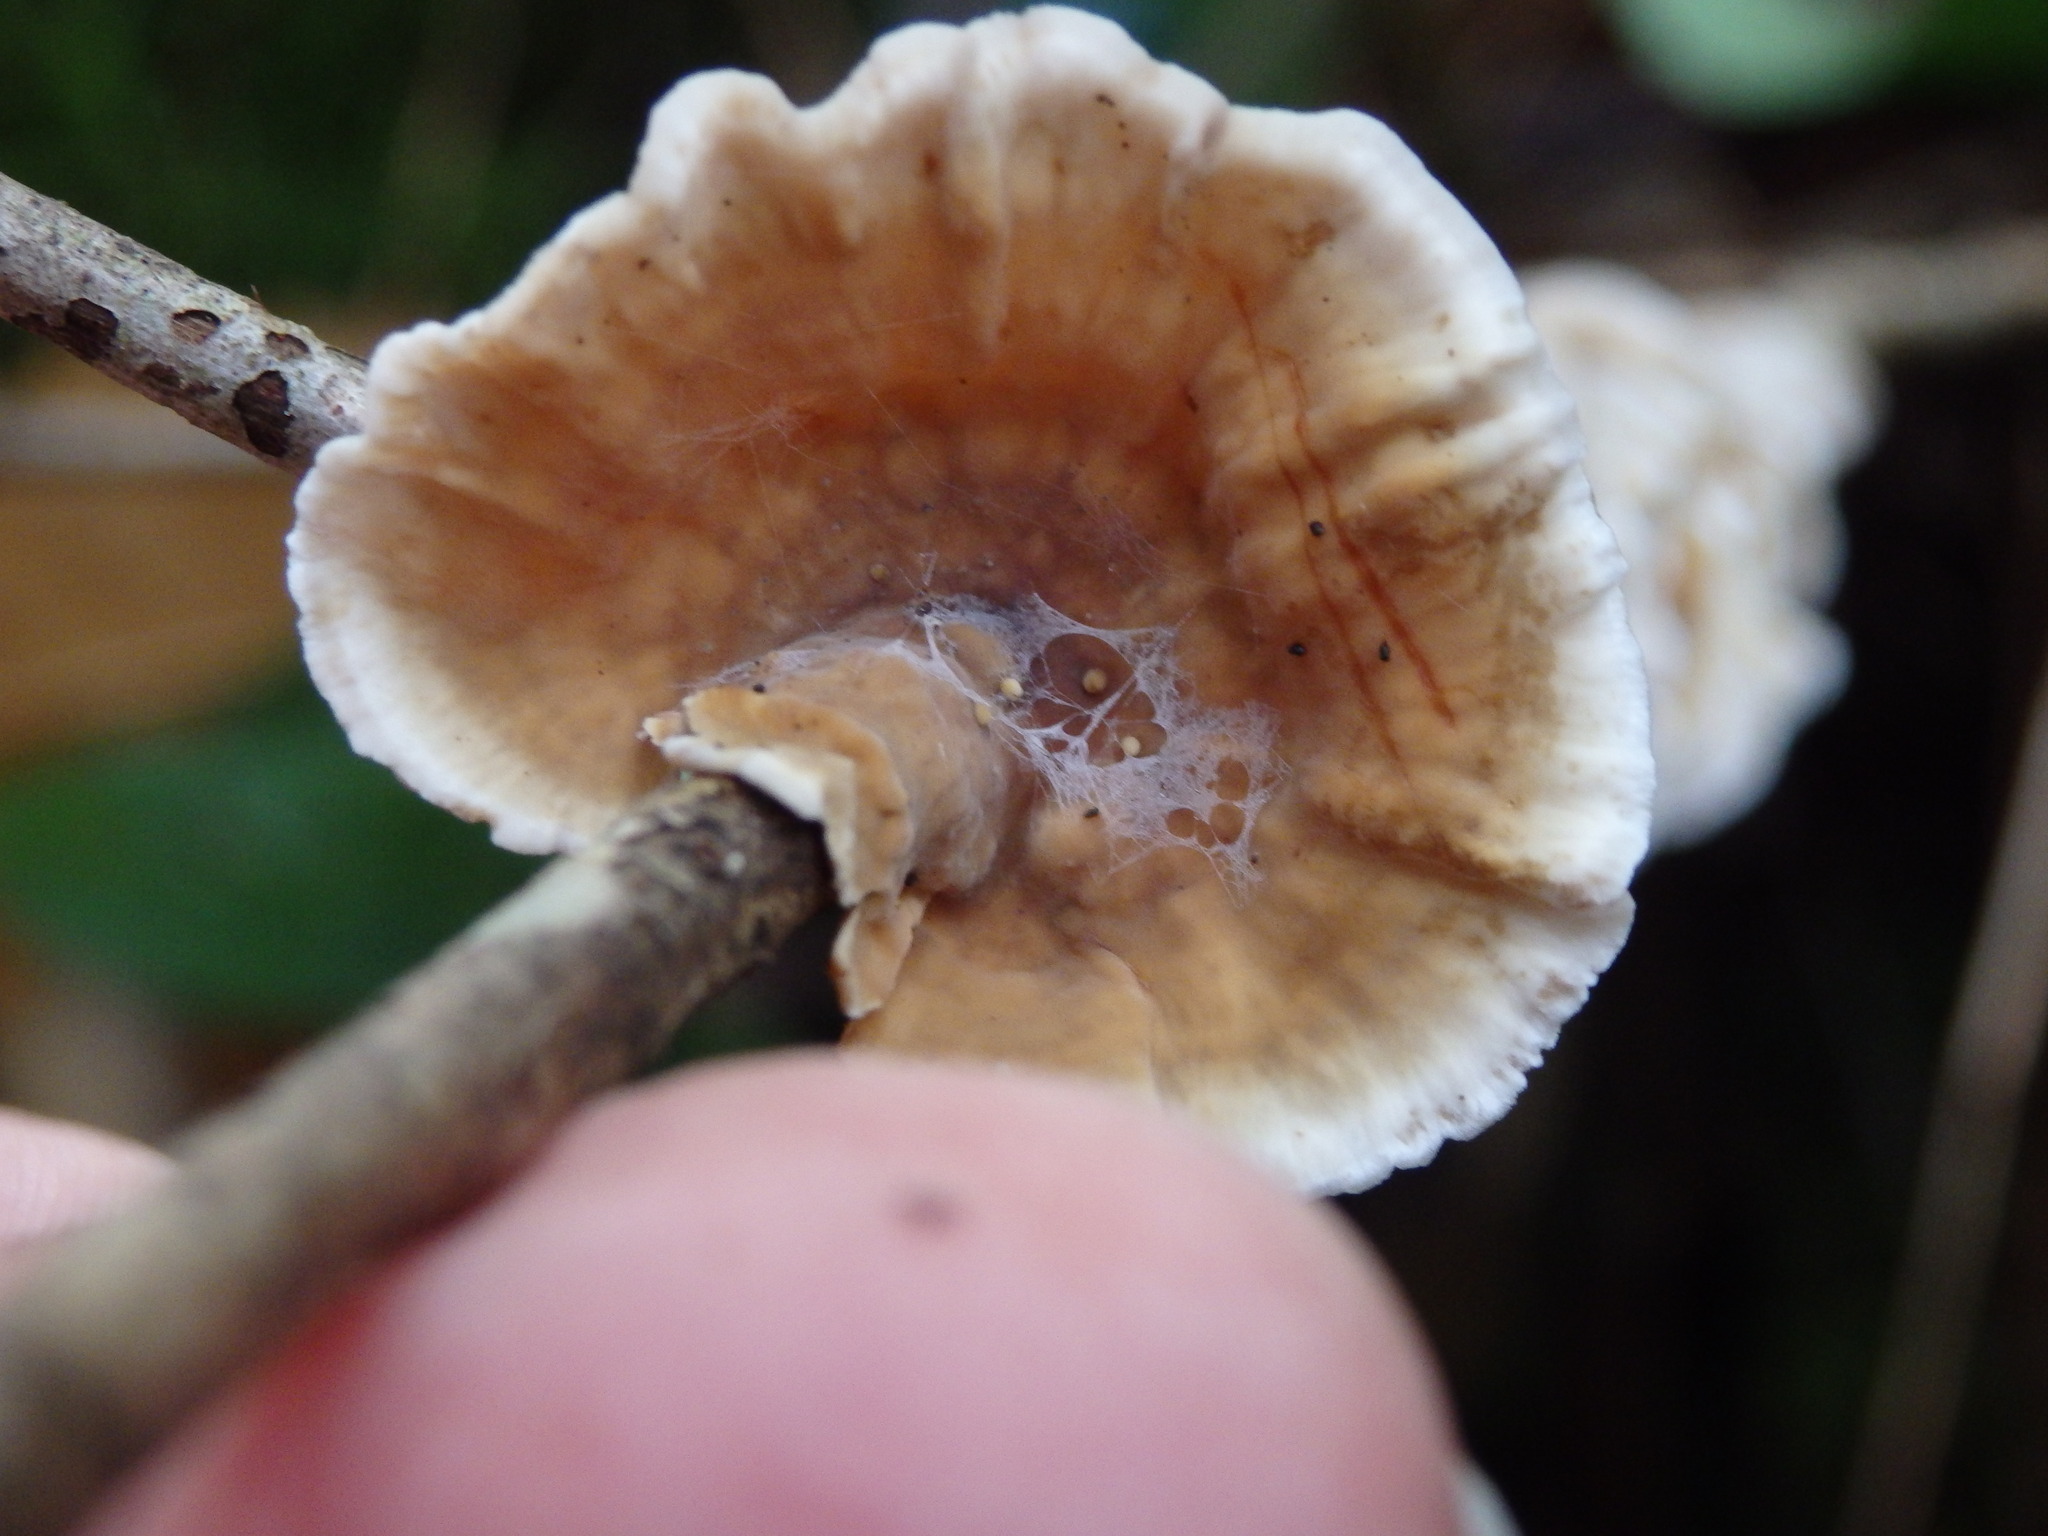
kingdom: Fungi
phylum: Basidiomycota
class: Agaricomycetes
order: Russulales
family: Stereaceae
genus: Stereum
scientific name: Stereum gausapatum
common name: Bleeding oak crust
